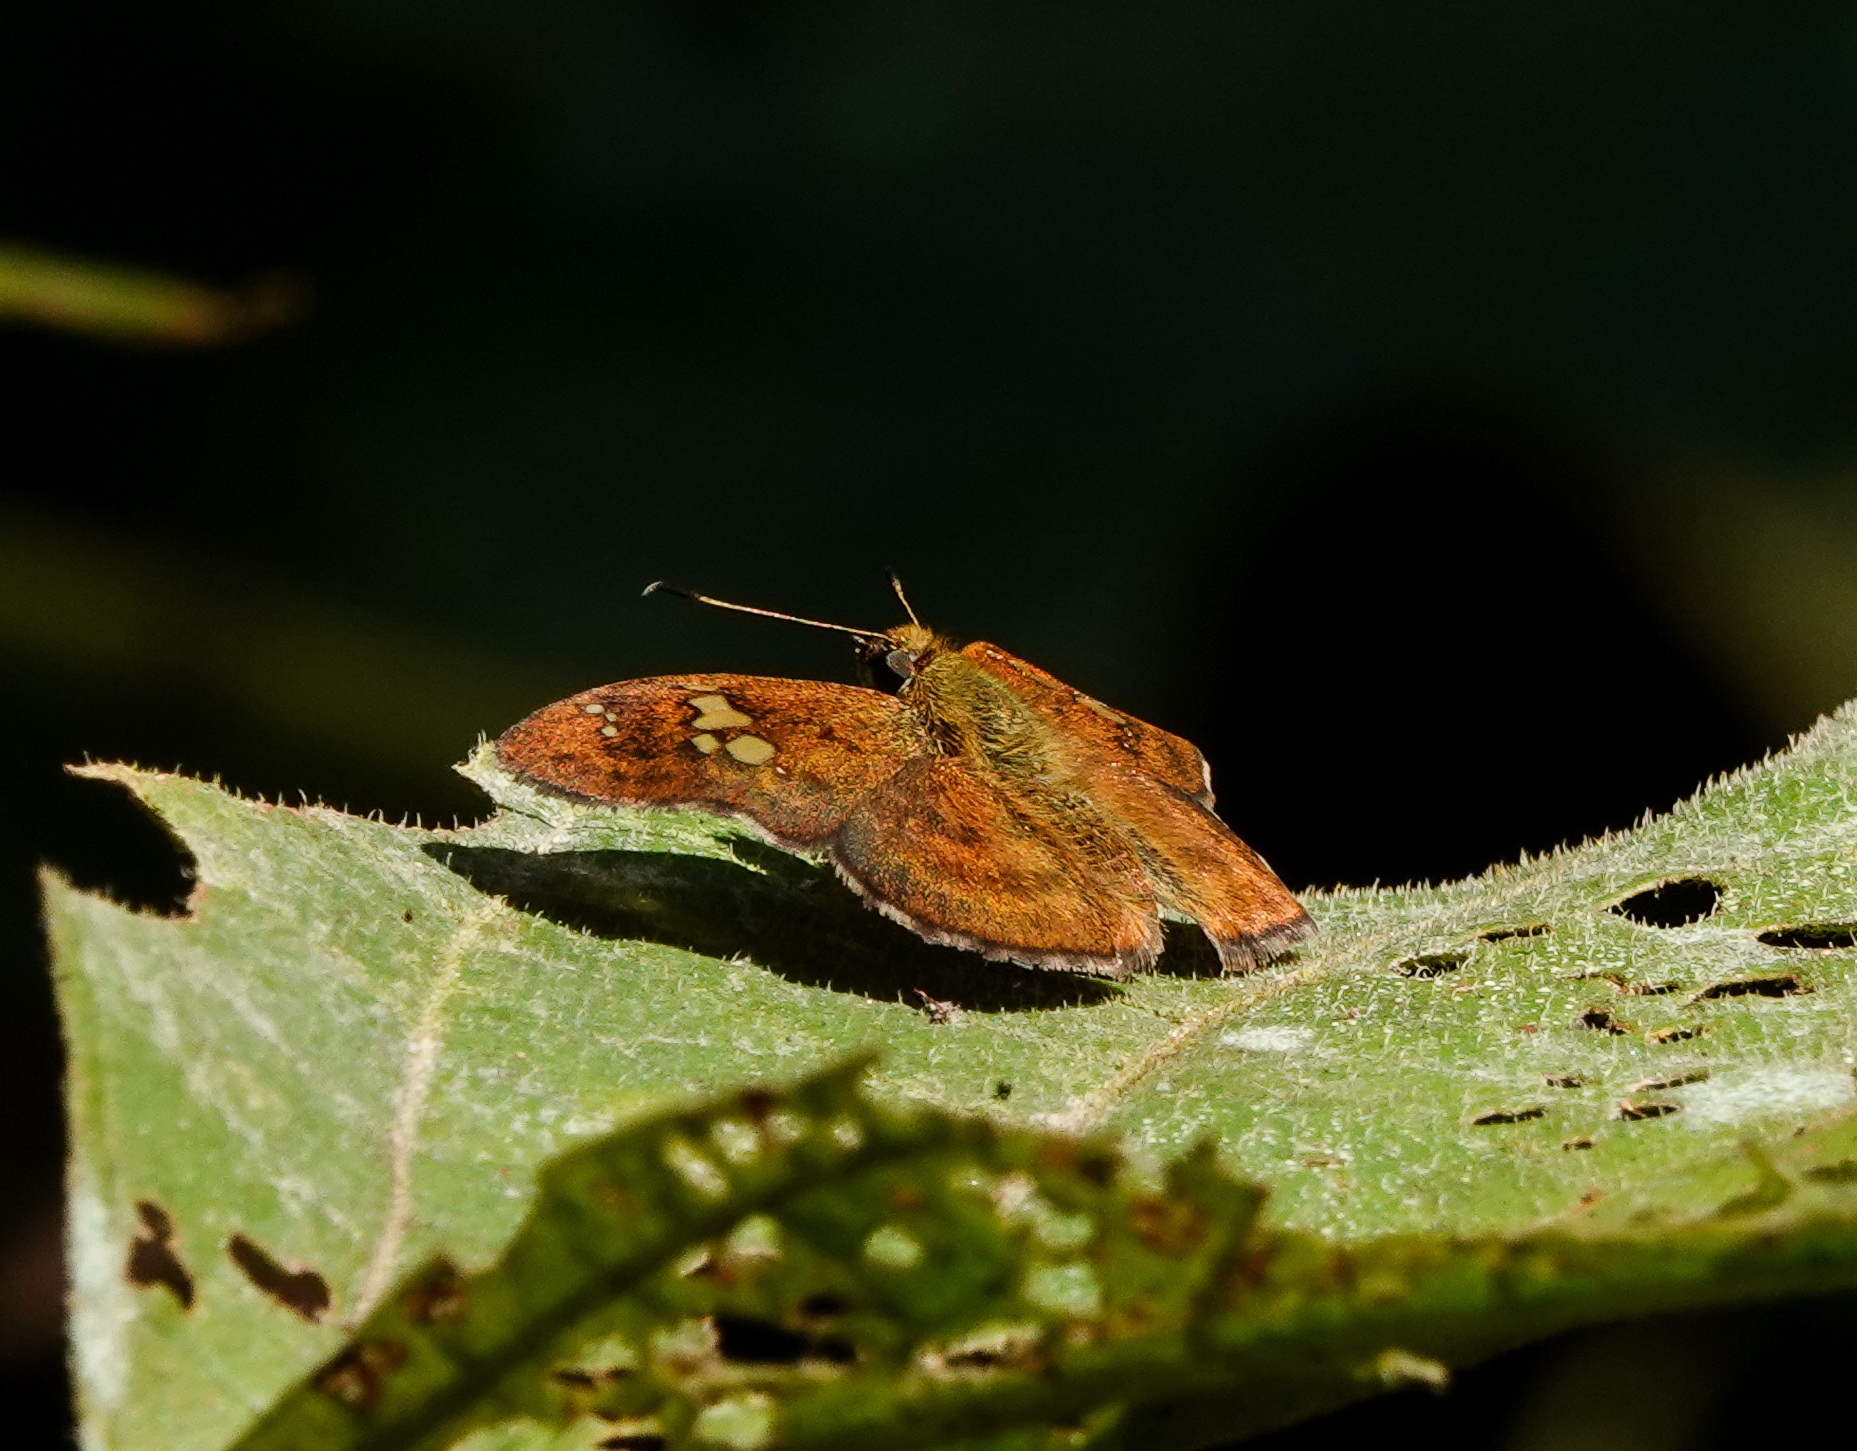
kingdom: Animalia
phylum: Arthropoda
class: Insecta
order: Lepidoptera
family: Hesperiidae
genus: Pseudocoladenia
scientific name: Pseudocoladenia dan
